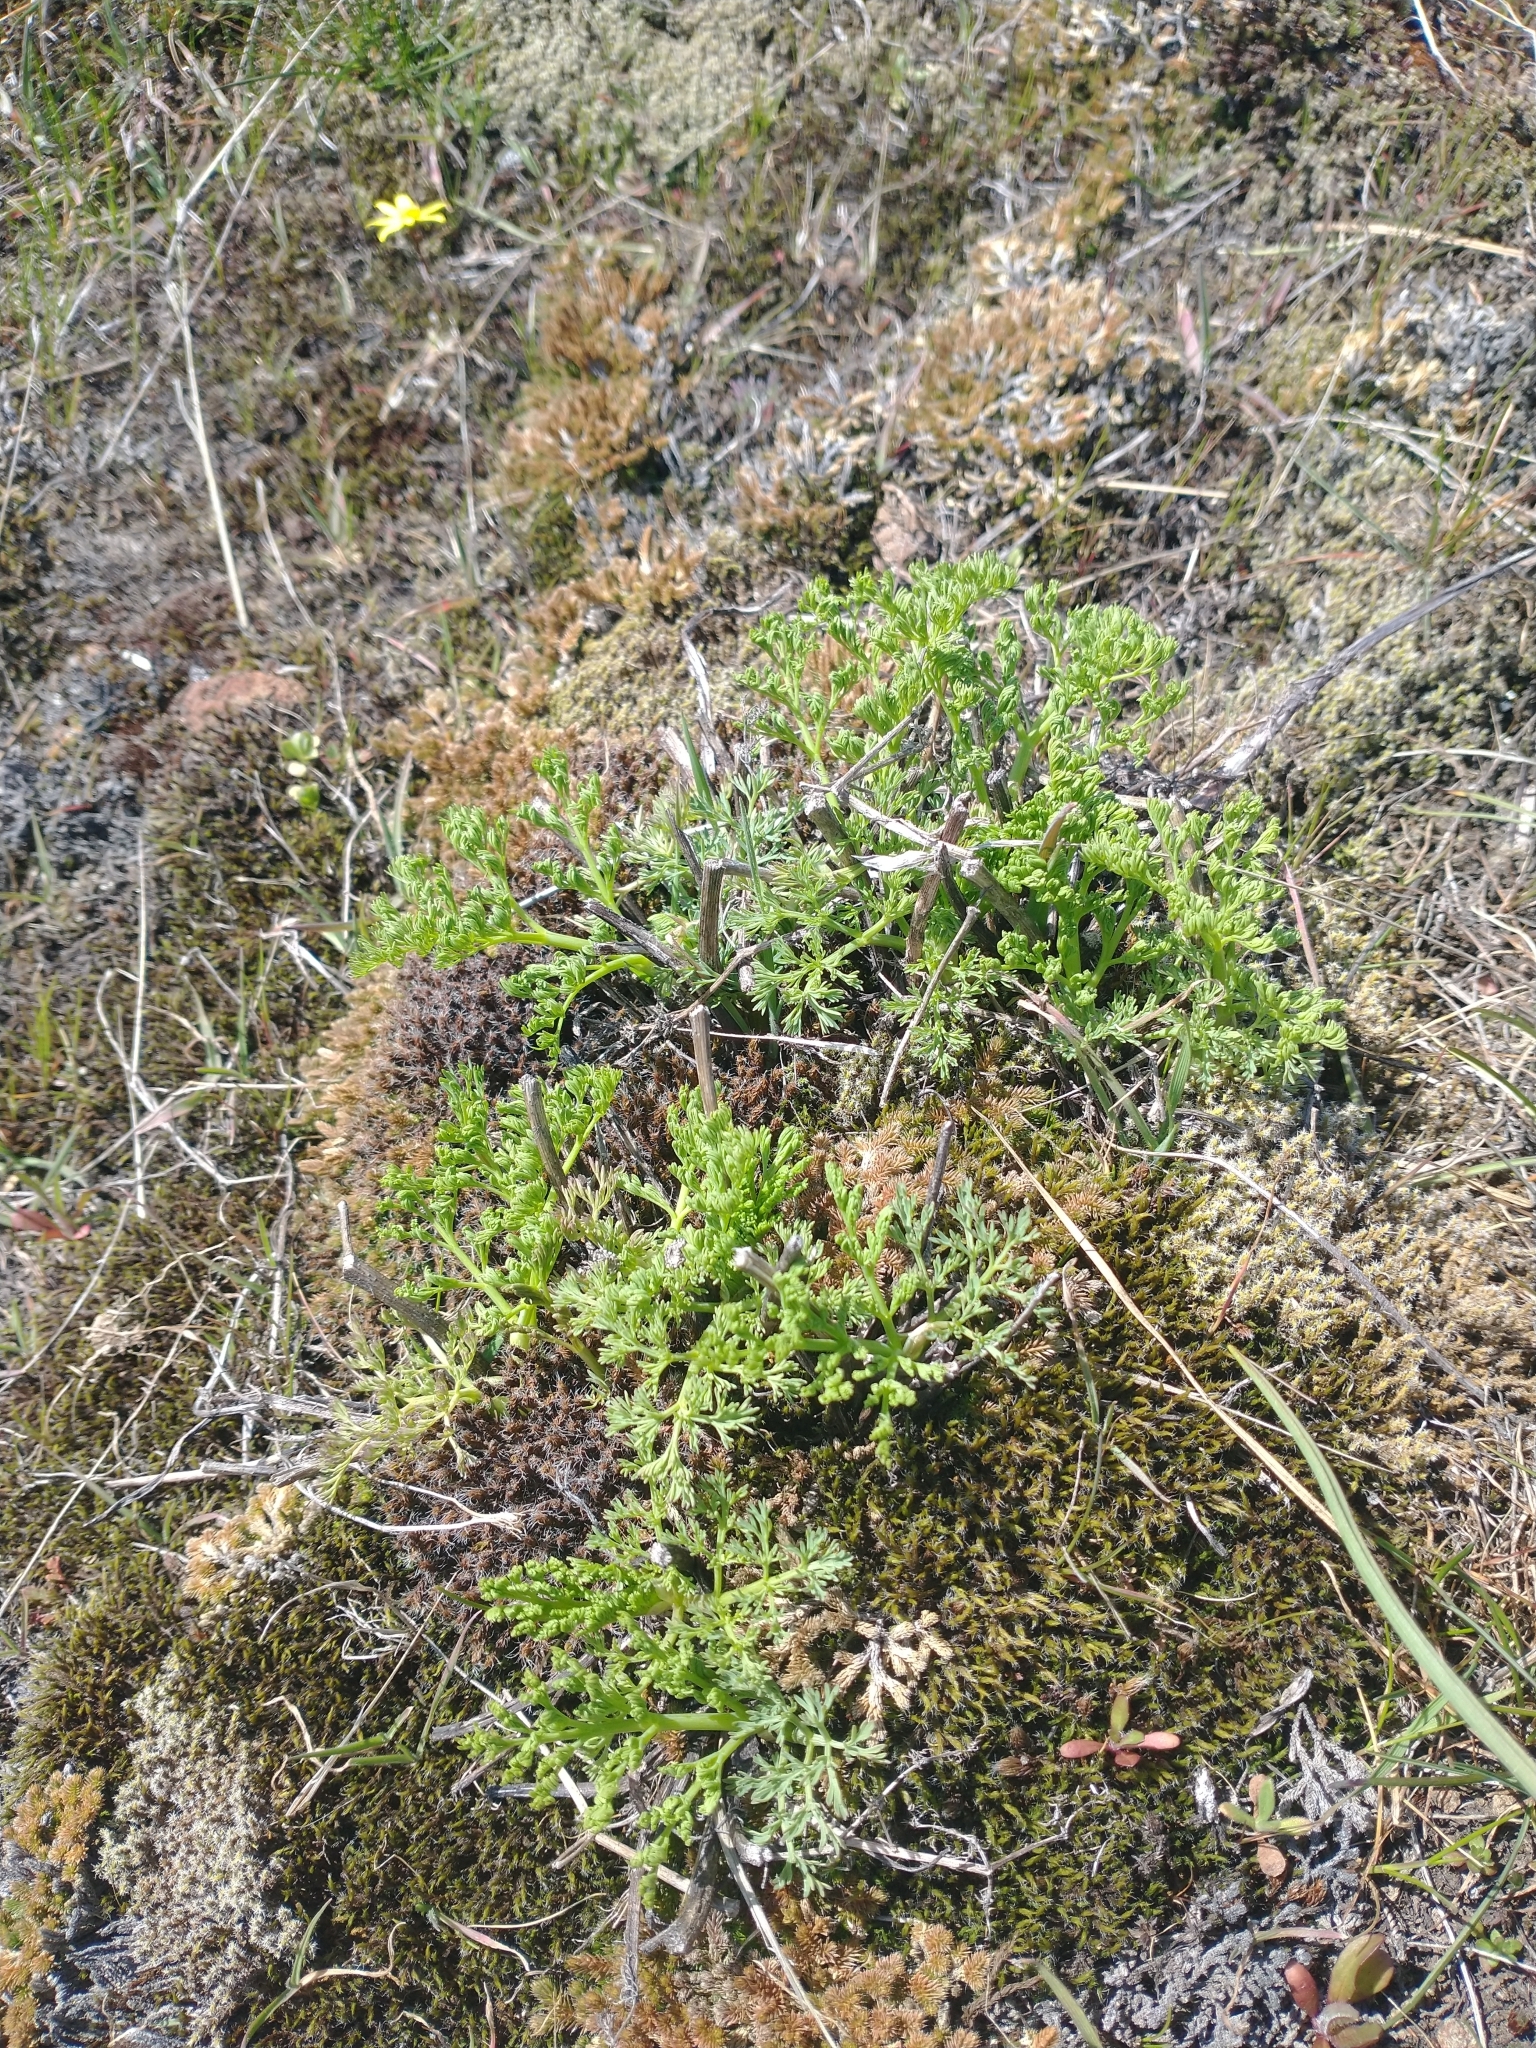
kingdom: Plantae
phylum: Tracheophyta
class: Magnoliopsida
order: Apiales
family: Apiaceae
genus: Lomatium
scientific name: Lomatium macrocarpum
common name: Big-seed biscuitroot
